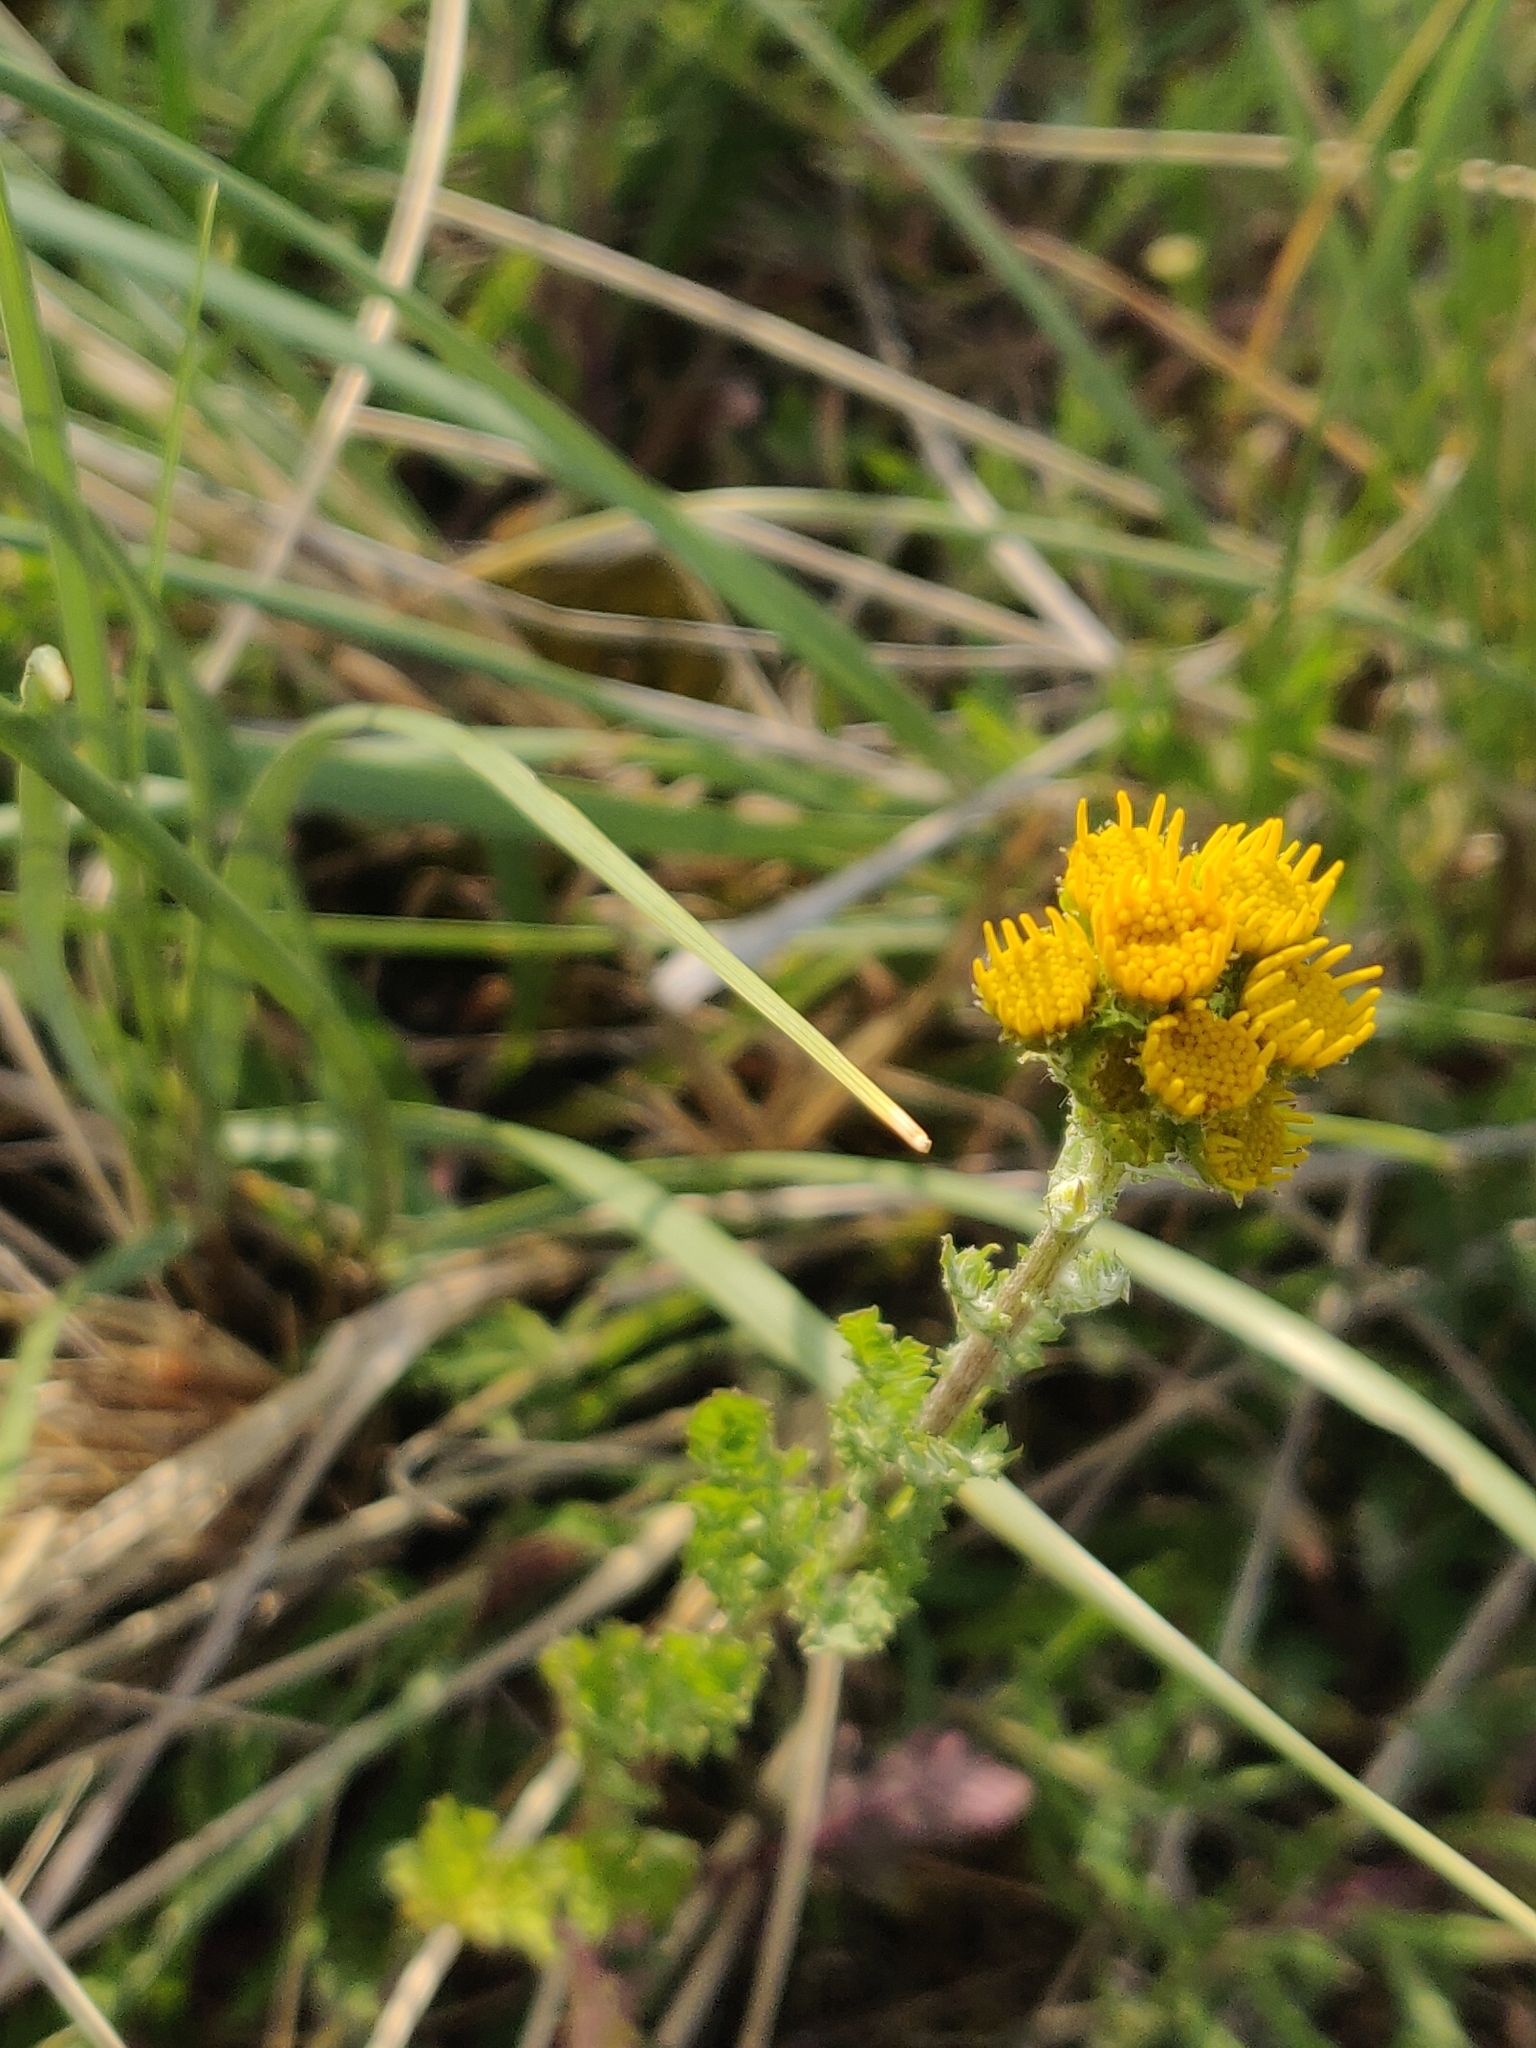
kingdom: Plantae
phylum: Tracheophyta
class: Magnoliopsida
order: Asterales
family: Asteraceae
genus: Jacobaea
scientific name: Jacobaea vulgaris
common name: Stinking willie
